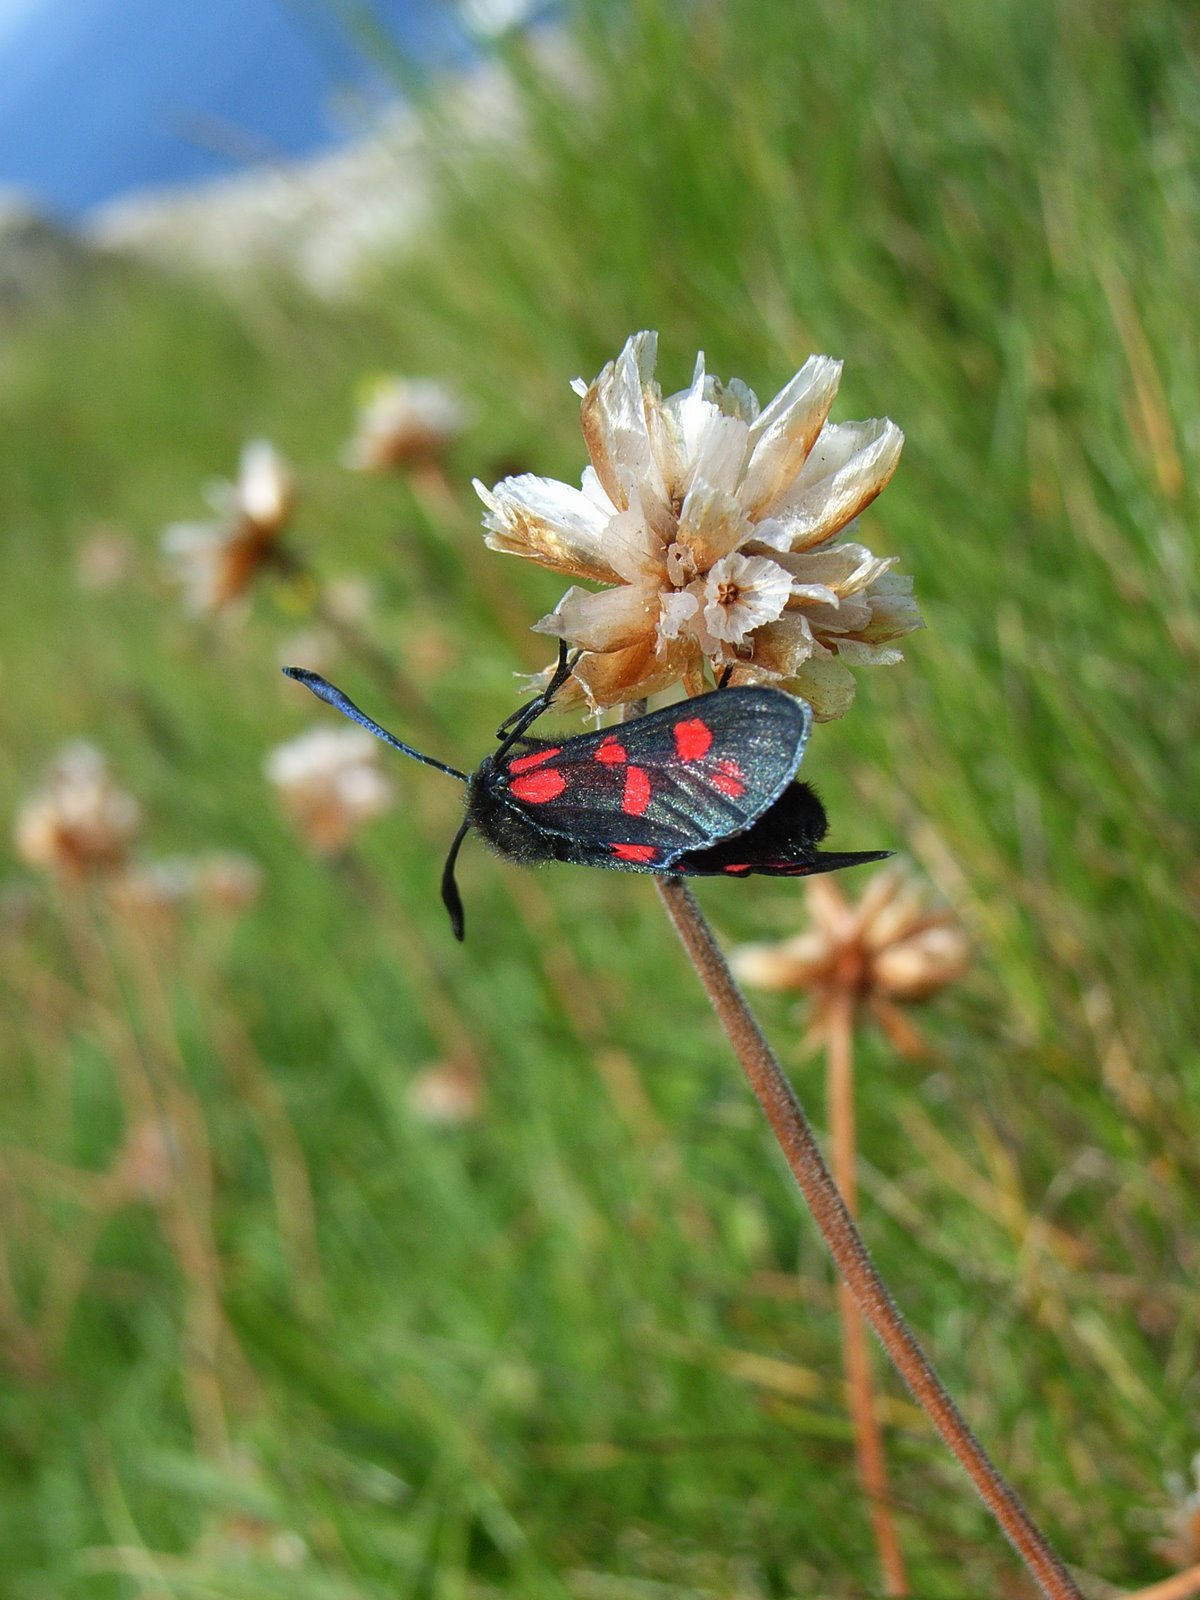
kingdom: Animalia
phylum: Arthropoda
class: Insecta
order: Lepidoptera
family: Zygaenidae
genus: Zygaena
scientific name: Zygaena filipendulae
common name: Six-spot burnet
